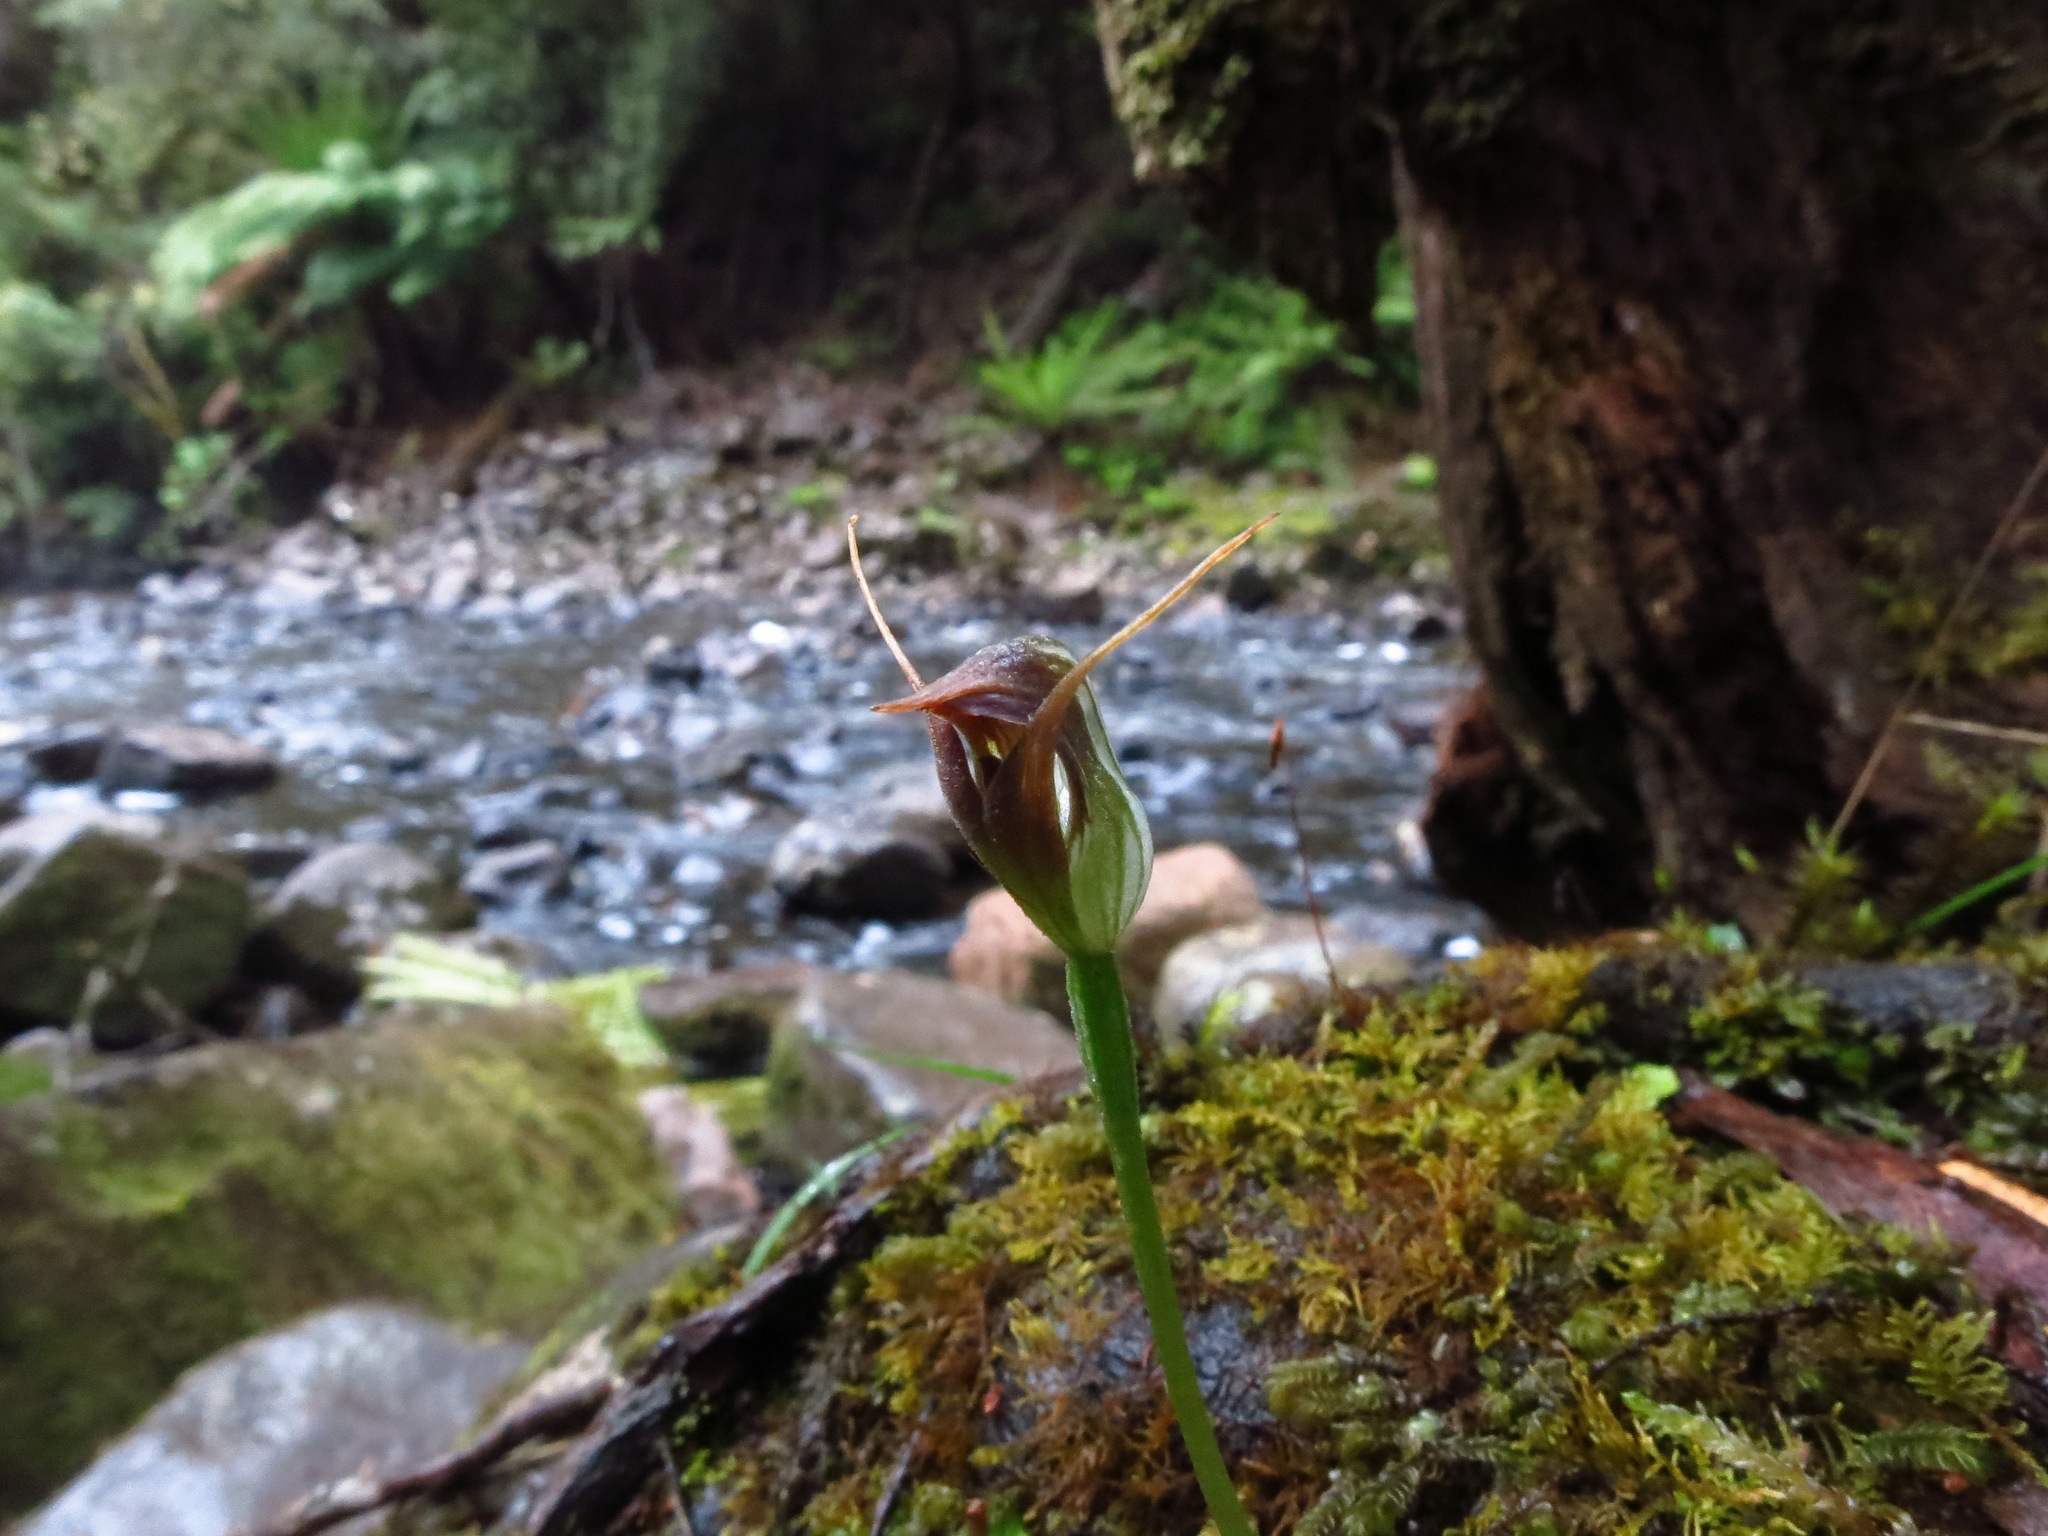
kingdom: Plantae
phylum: Tracheophyta
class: Liliopsida
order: Asparagales
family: Orchidaceae
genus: Pterostylis
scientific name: Pterostylis pedunculata
